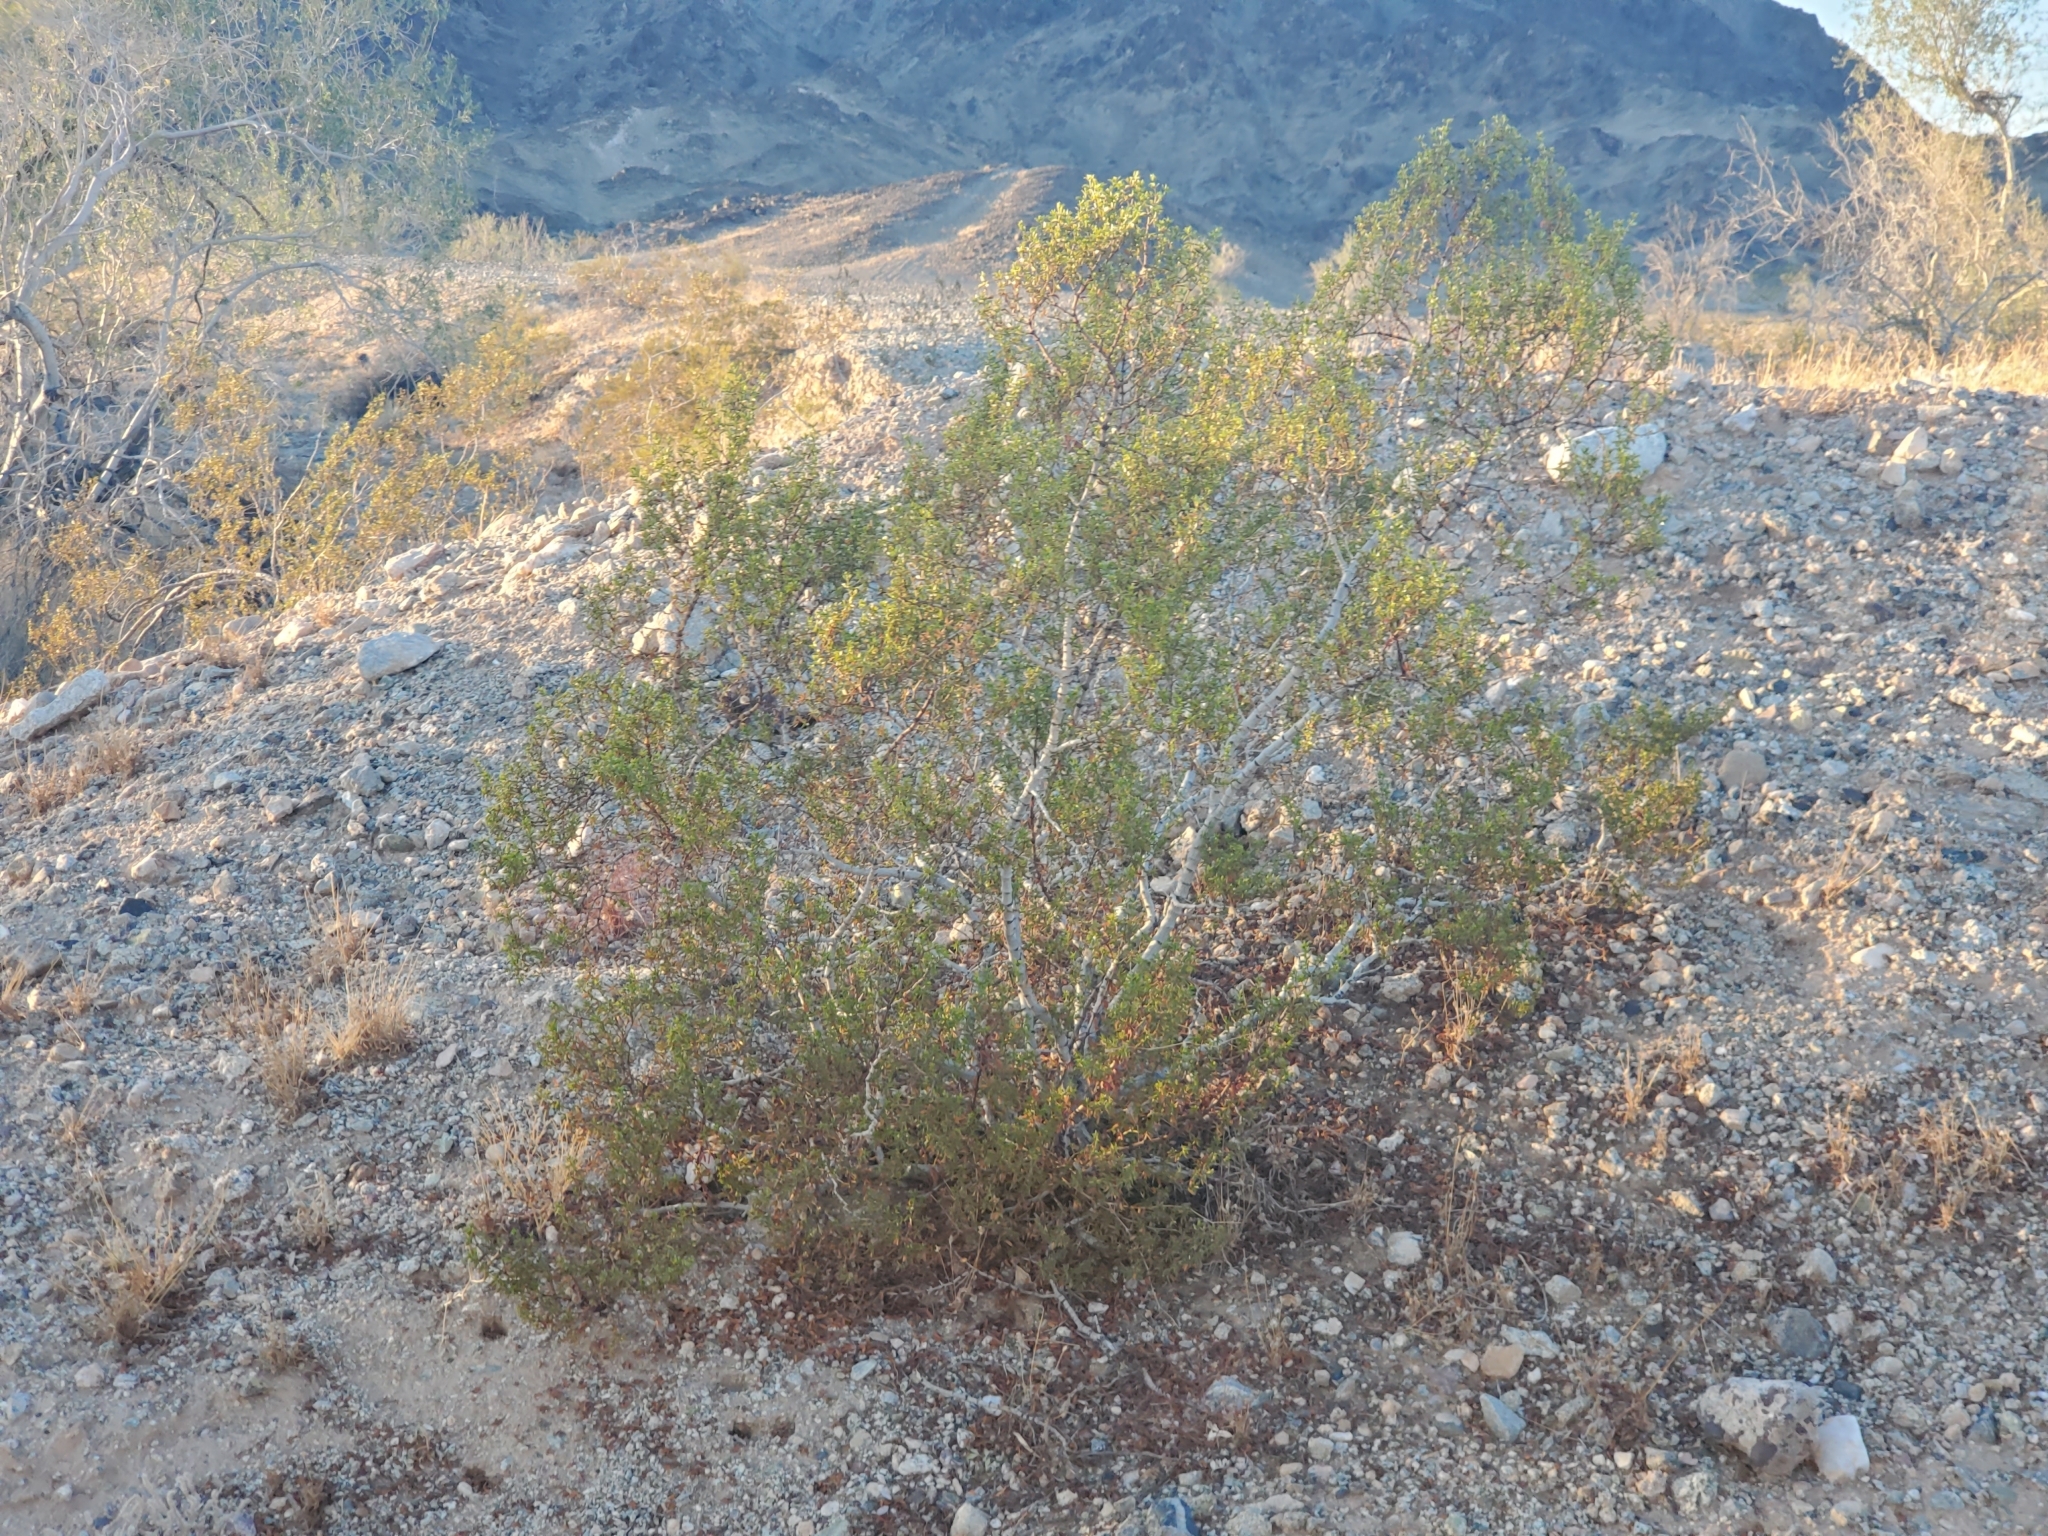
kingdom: Plantae
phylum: Tracheophyta
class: Magnoliopsida
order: Zygophyllales
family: Zygophyllaceae
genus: Larrea
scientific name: Larrea tridentata
